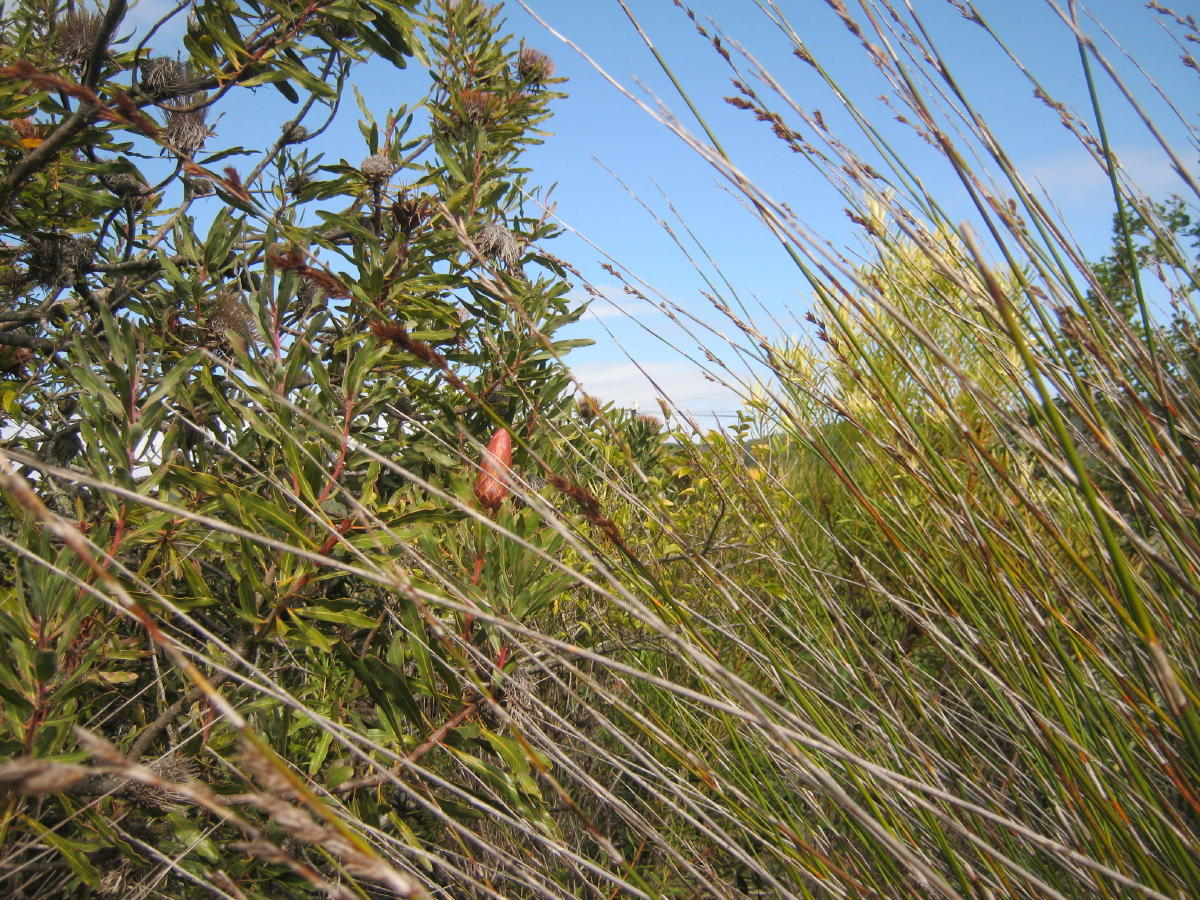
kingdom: Plantae
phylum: Tracheophyta
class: Magnoliopsida
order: Proteales
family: Proteaceae
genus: Protea
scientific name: Protea susannae
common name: Foetid-leaf sugarbush
